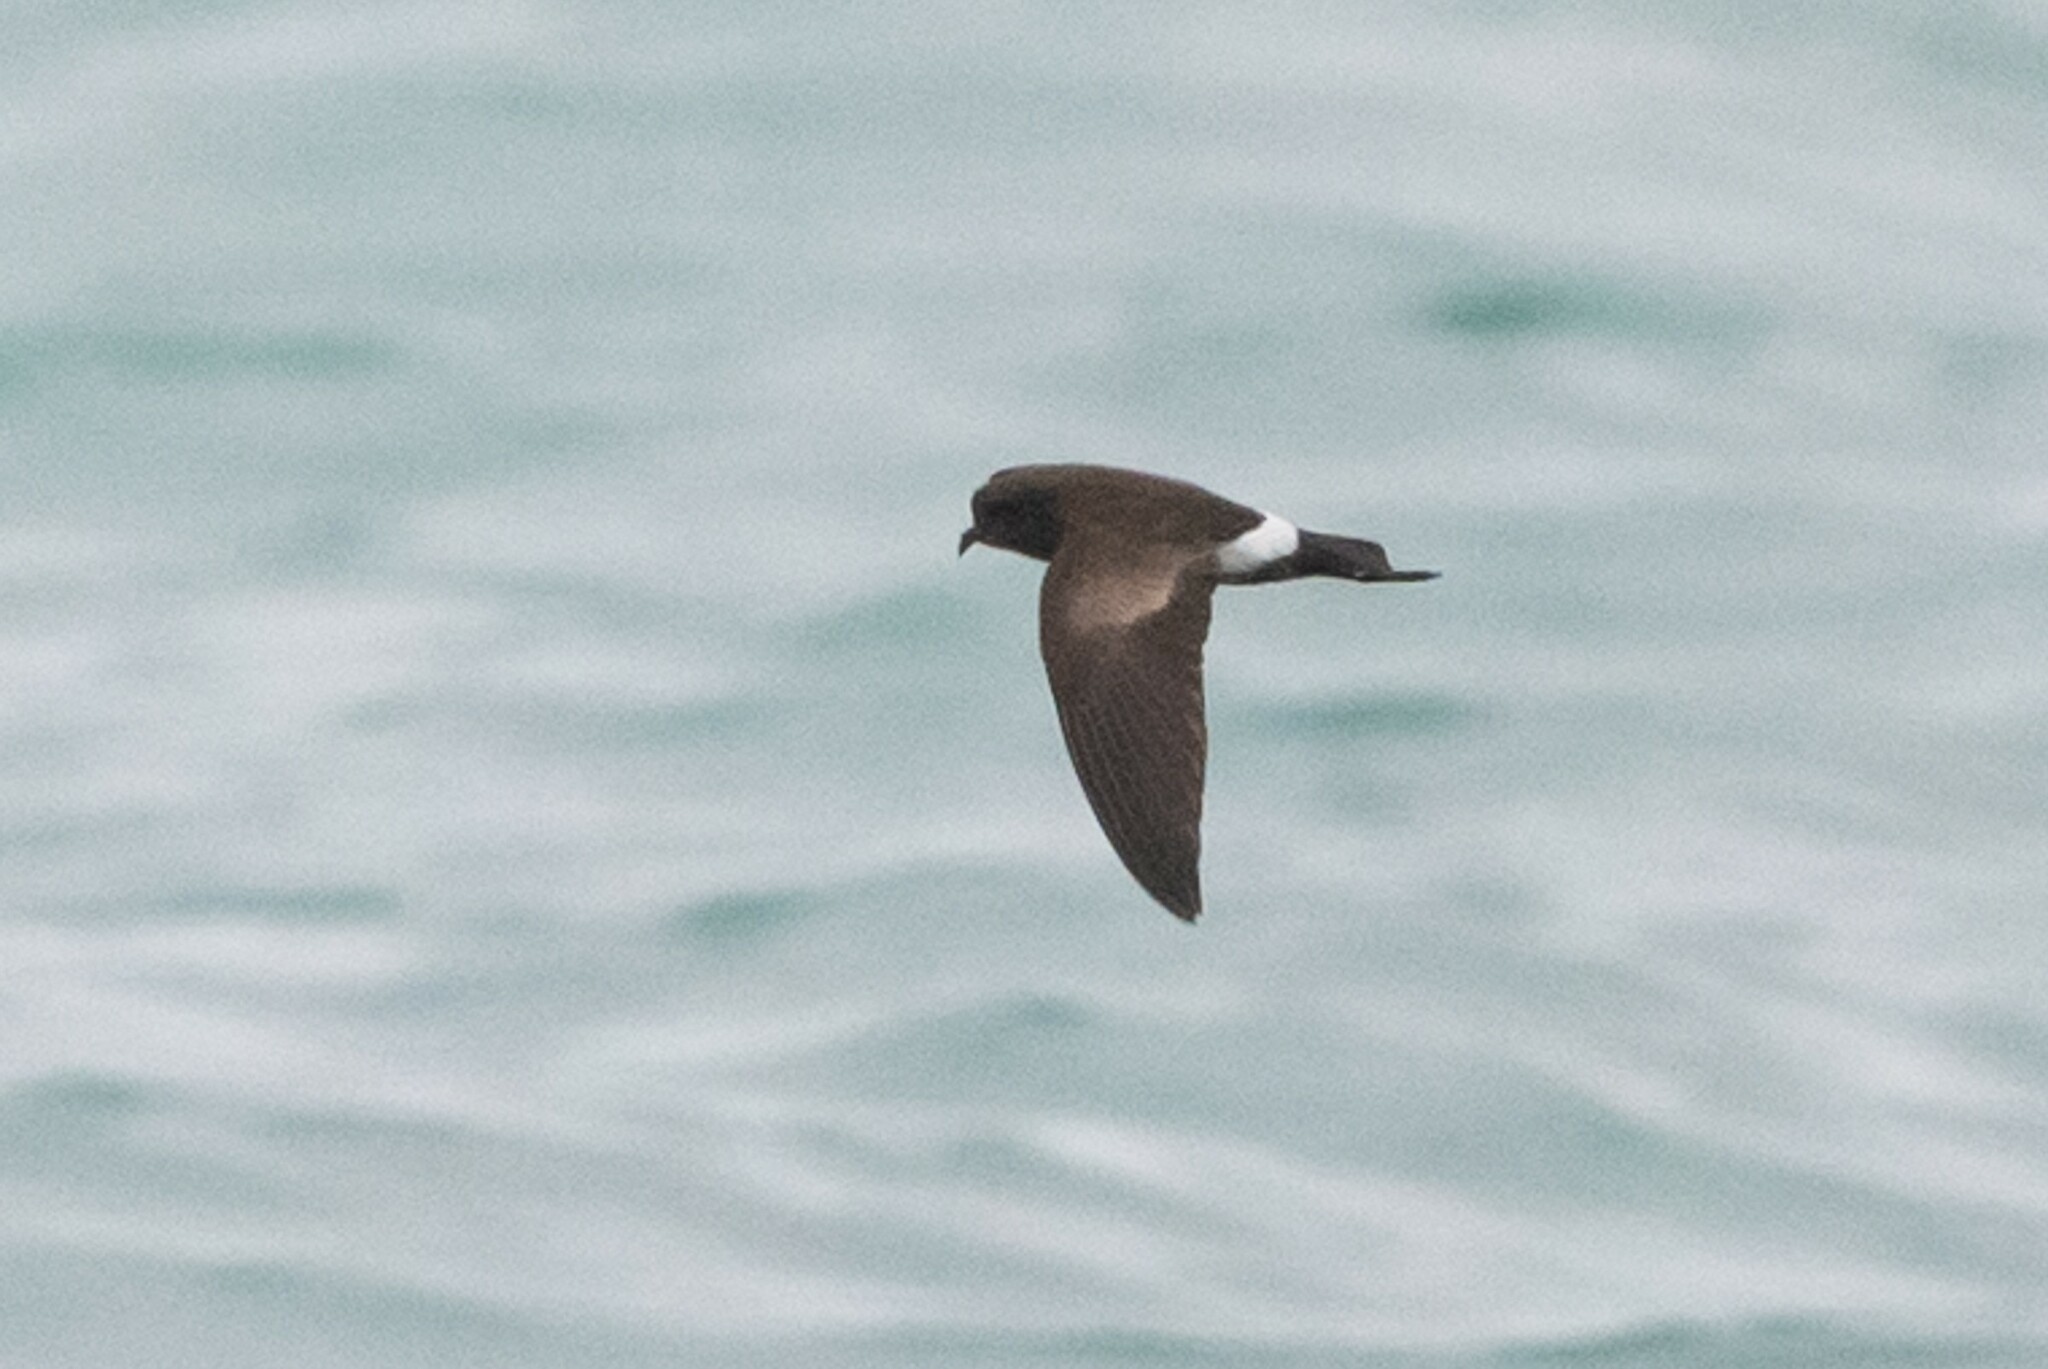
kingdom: Animalia
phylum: Chordata
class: Aves
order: Procellariiformes
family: Hydrobatidae
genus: Oceanites
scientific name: Oceanites gracilis
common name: Elliot's storm-petrel
